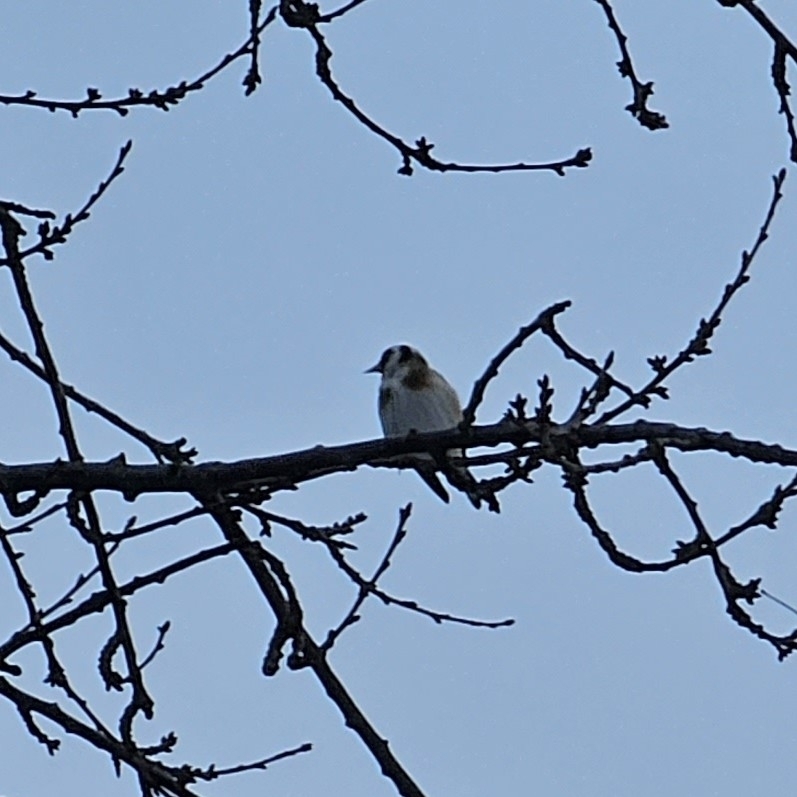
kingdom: Animalia
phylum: Chordata
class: Aves
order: Passeriformes
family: Fringillidae
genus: Carduelis
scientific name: Carduelis carduelis
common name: European goldfinch
